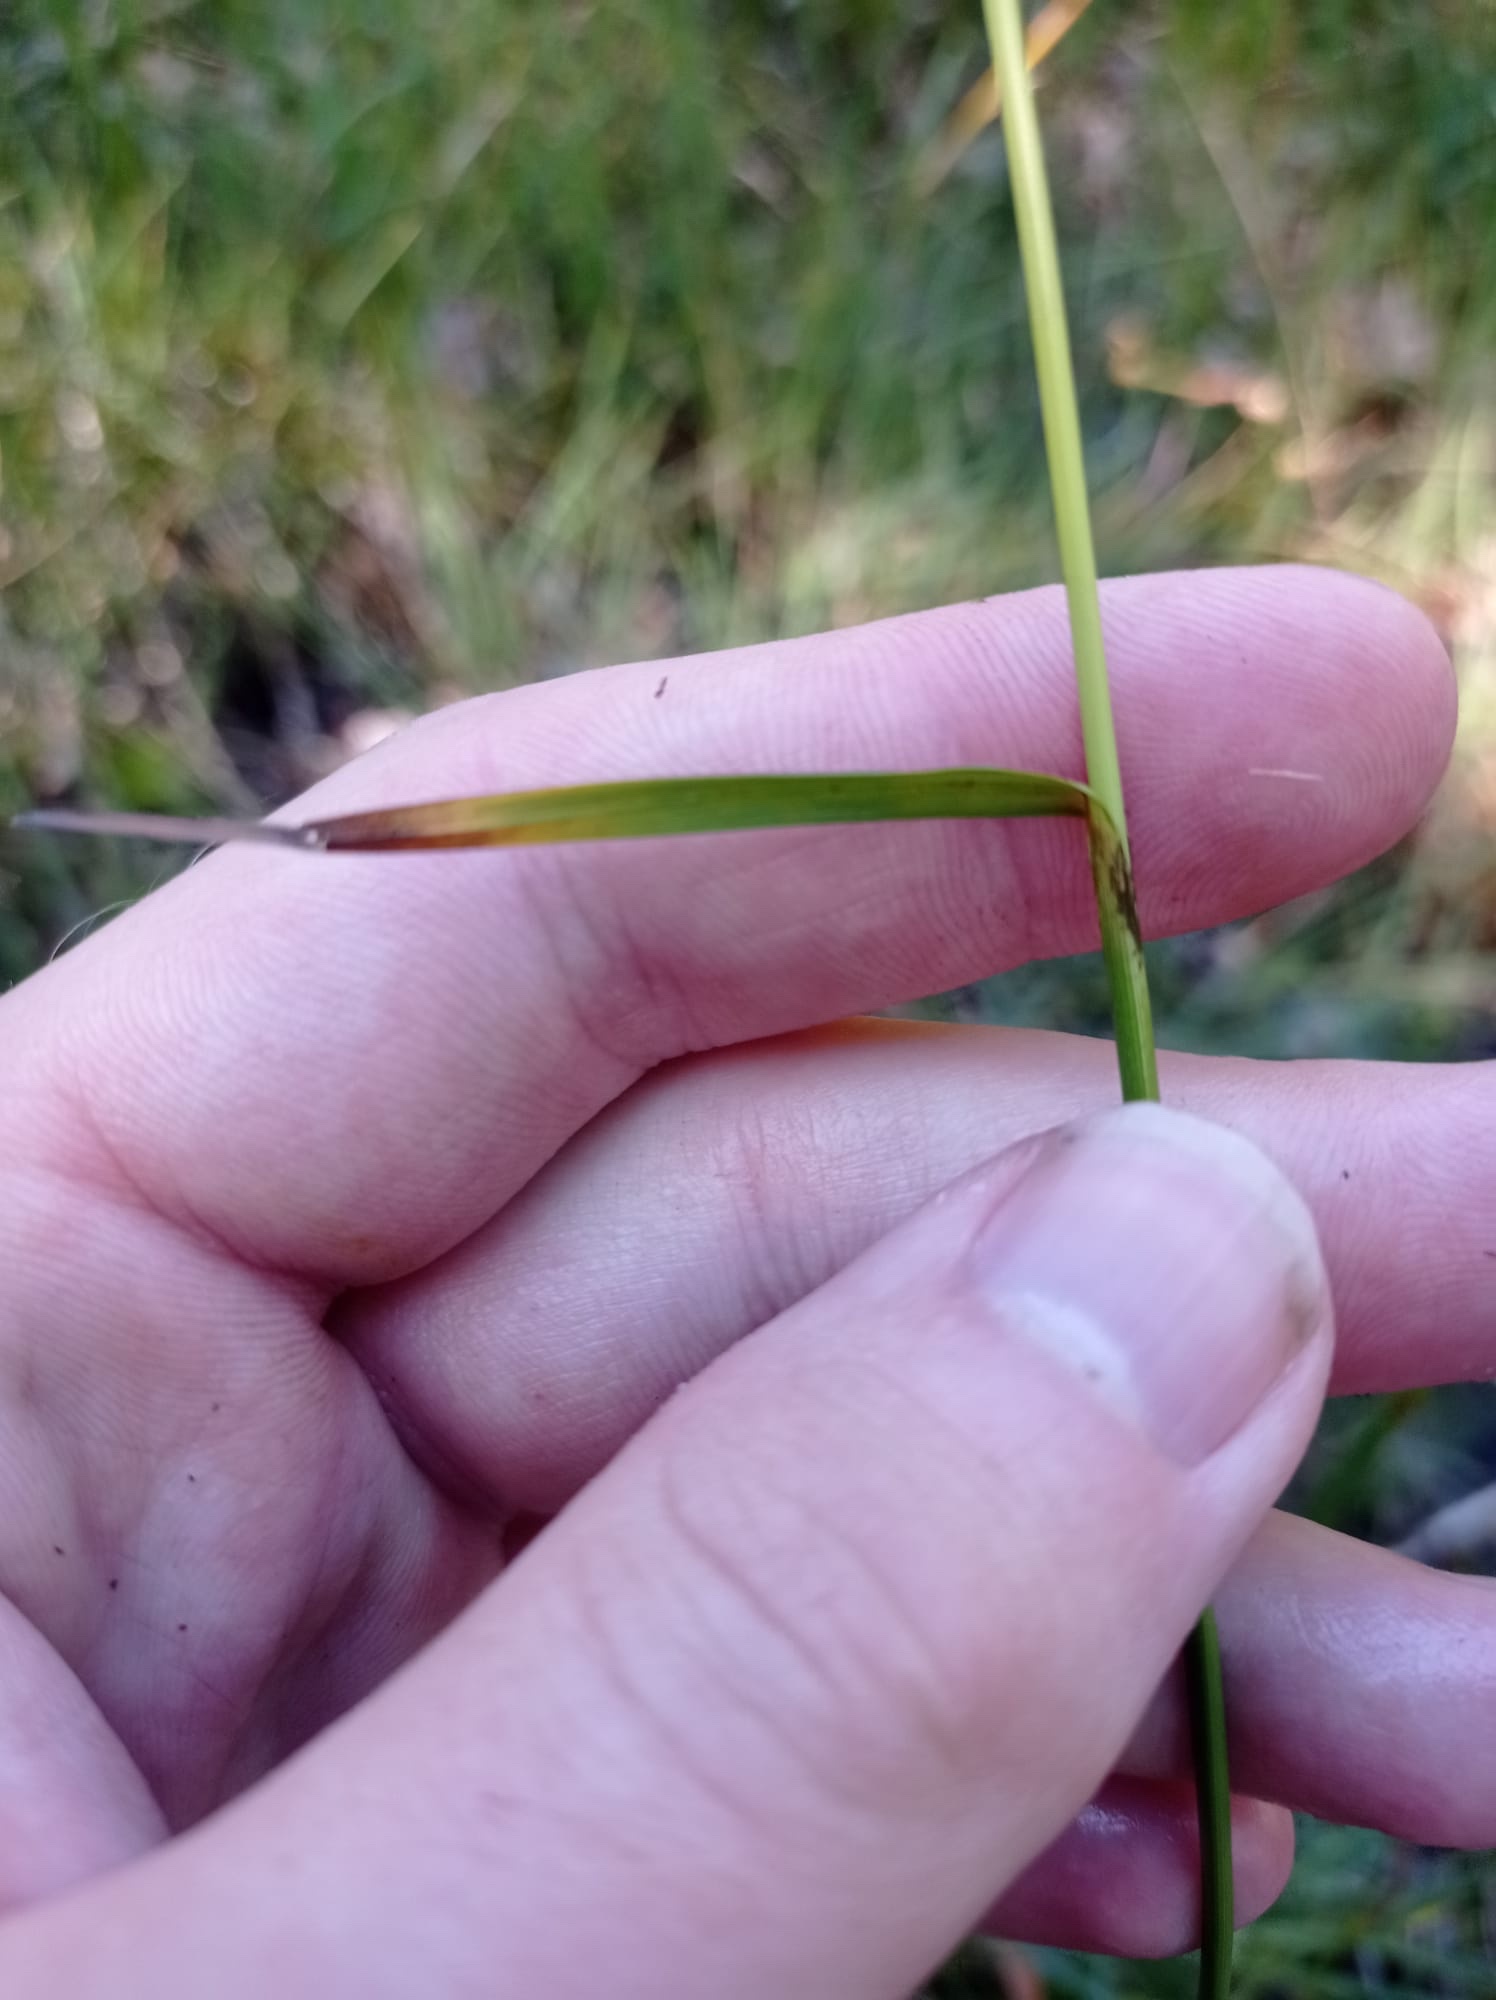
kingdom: Plantae
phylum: Tracheophyta
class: Liliopsida
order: Poales
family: Cyperaceae
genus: Eriophorum
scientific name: Eriophorum latifolium
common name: Broad-leaved cottongrass
